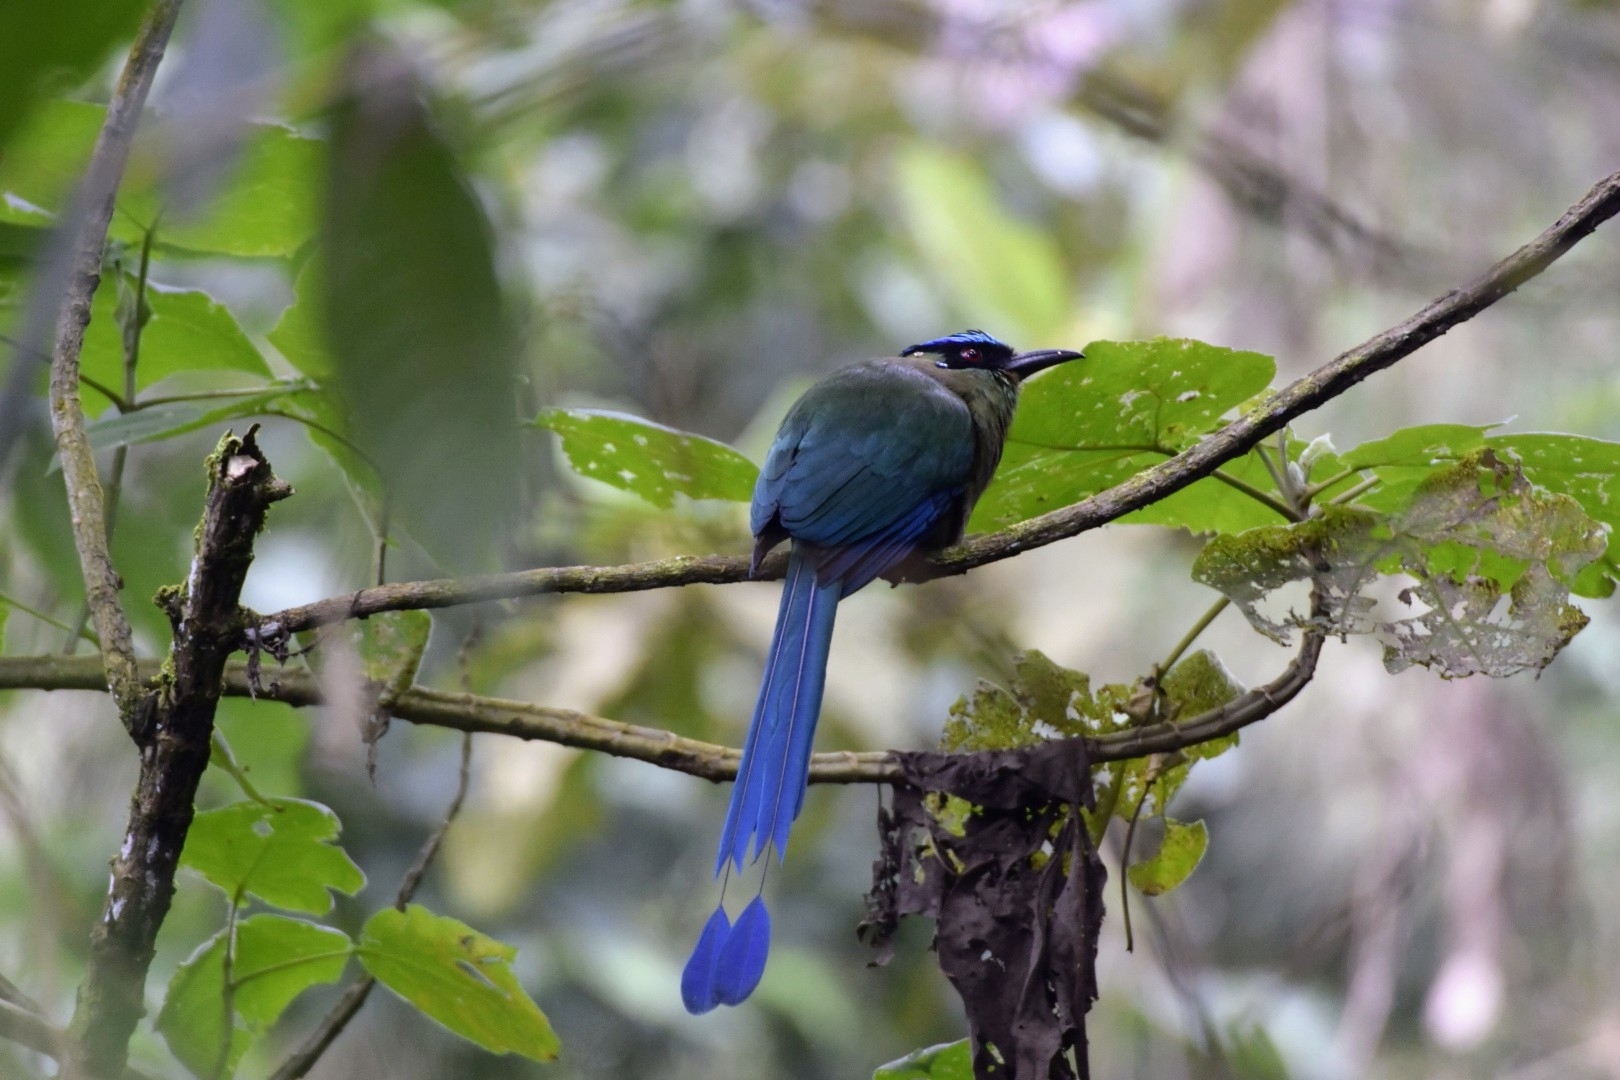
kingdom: Animalia
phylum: Chordata
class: Aves
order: Coraciiformes
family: Momotidae
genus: Momotus
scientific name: Momotus aequatorialis
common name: Andean motmot
